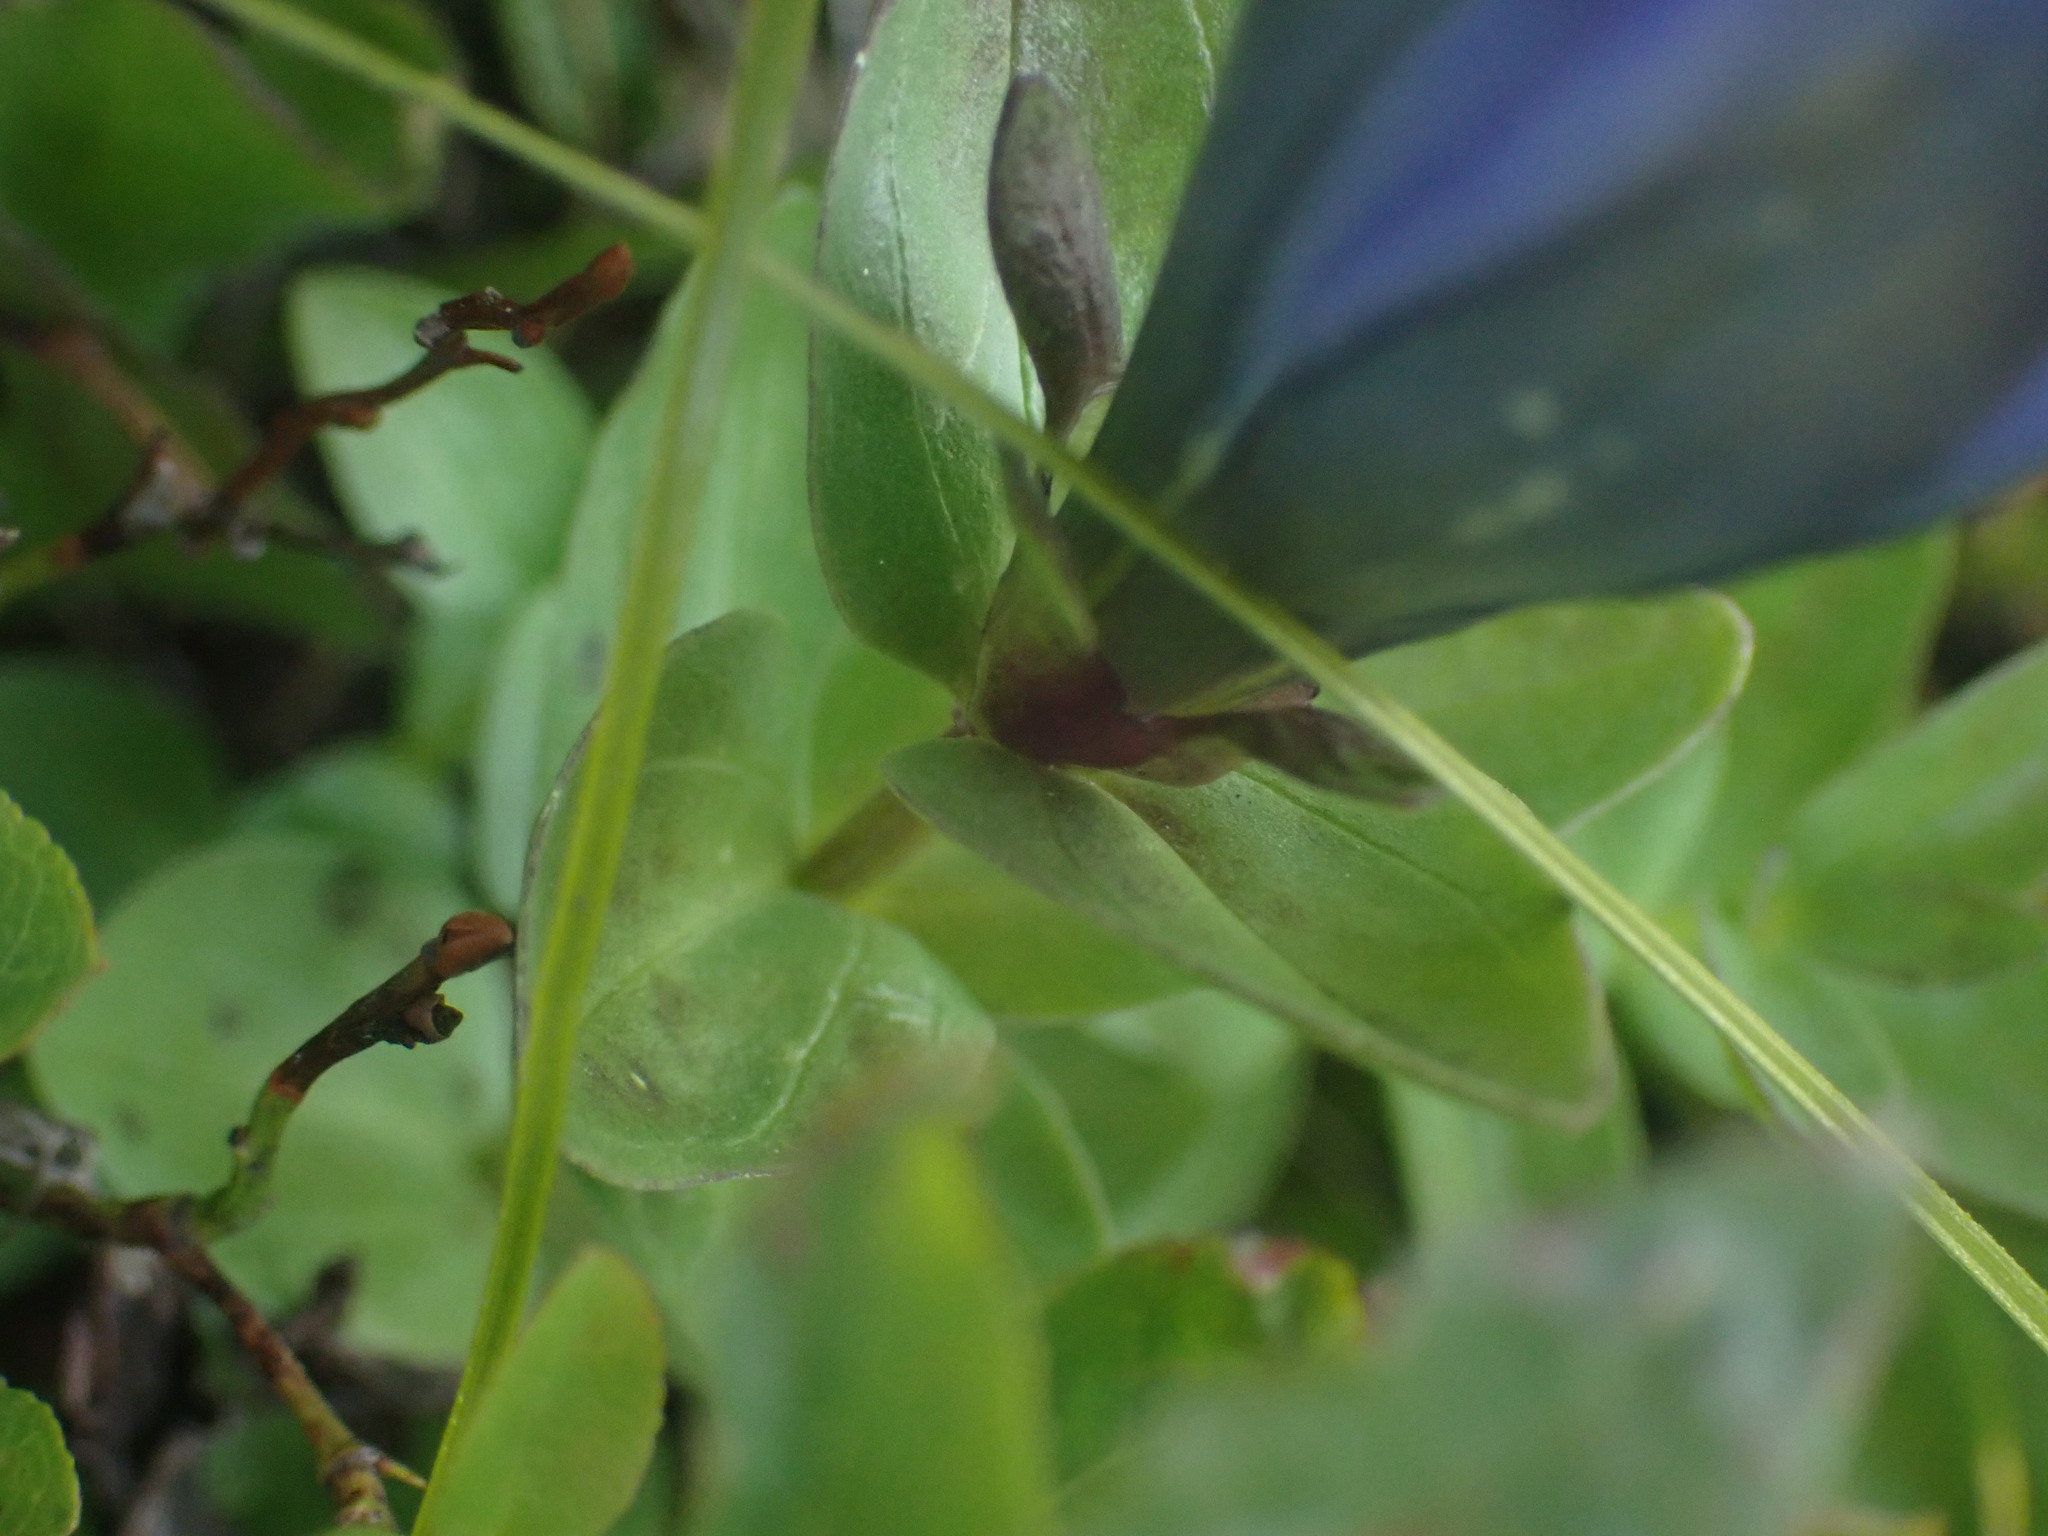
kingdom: Plantae
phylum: Tracheophyta
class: Magnoliopsida
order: Gentianales
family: Gentianaceae
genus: Gentiana
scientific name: Gentiana calycosa
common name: Rainier pleated gentian
